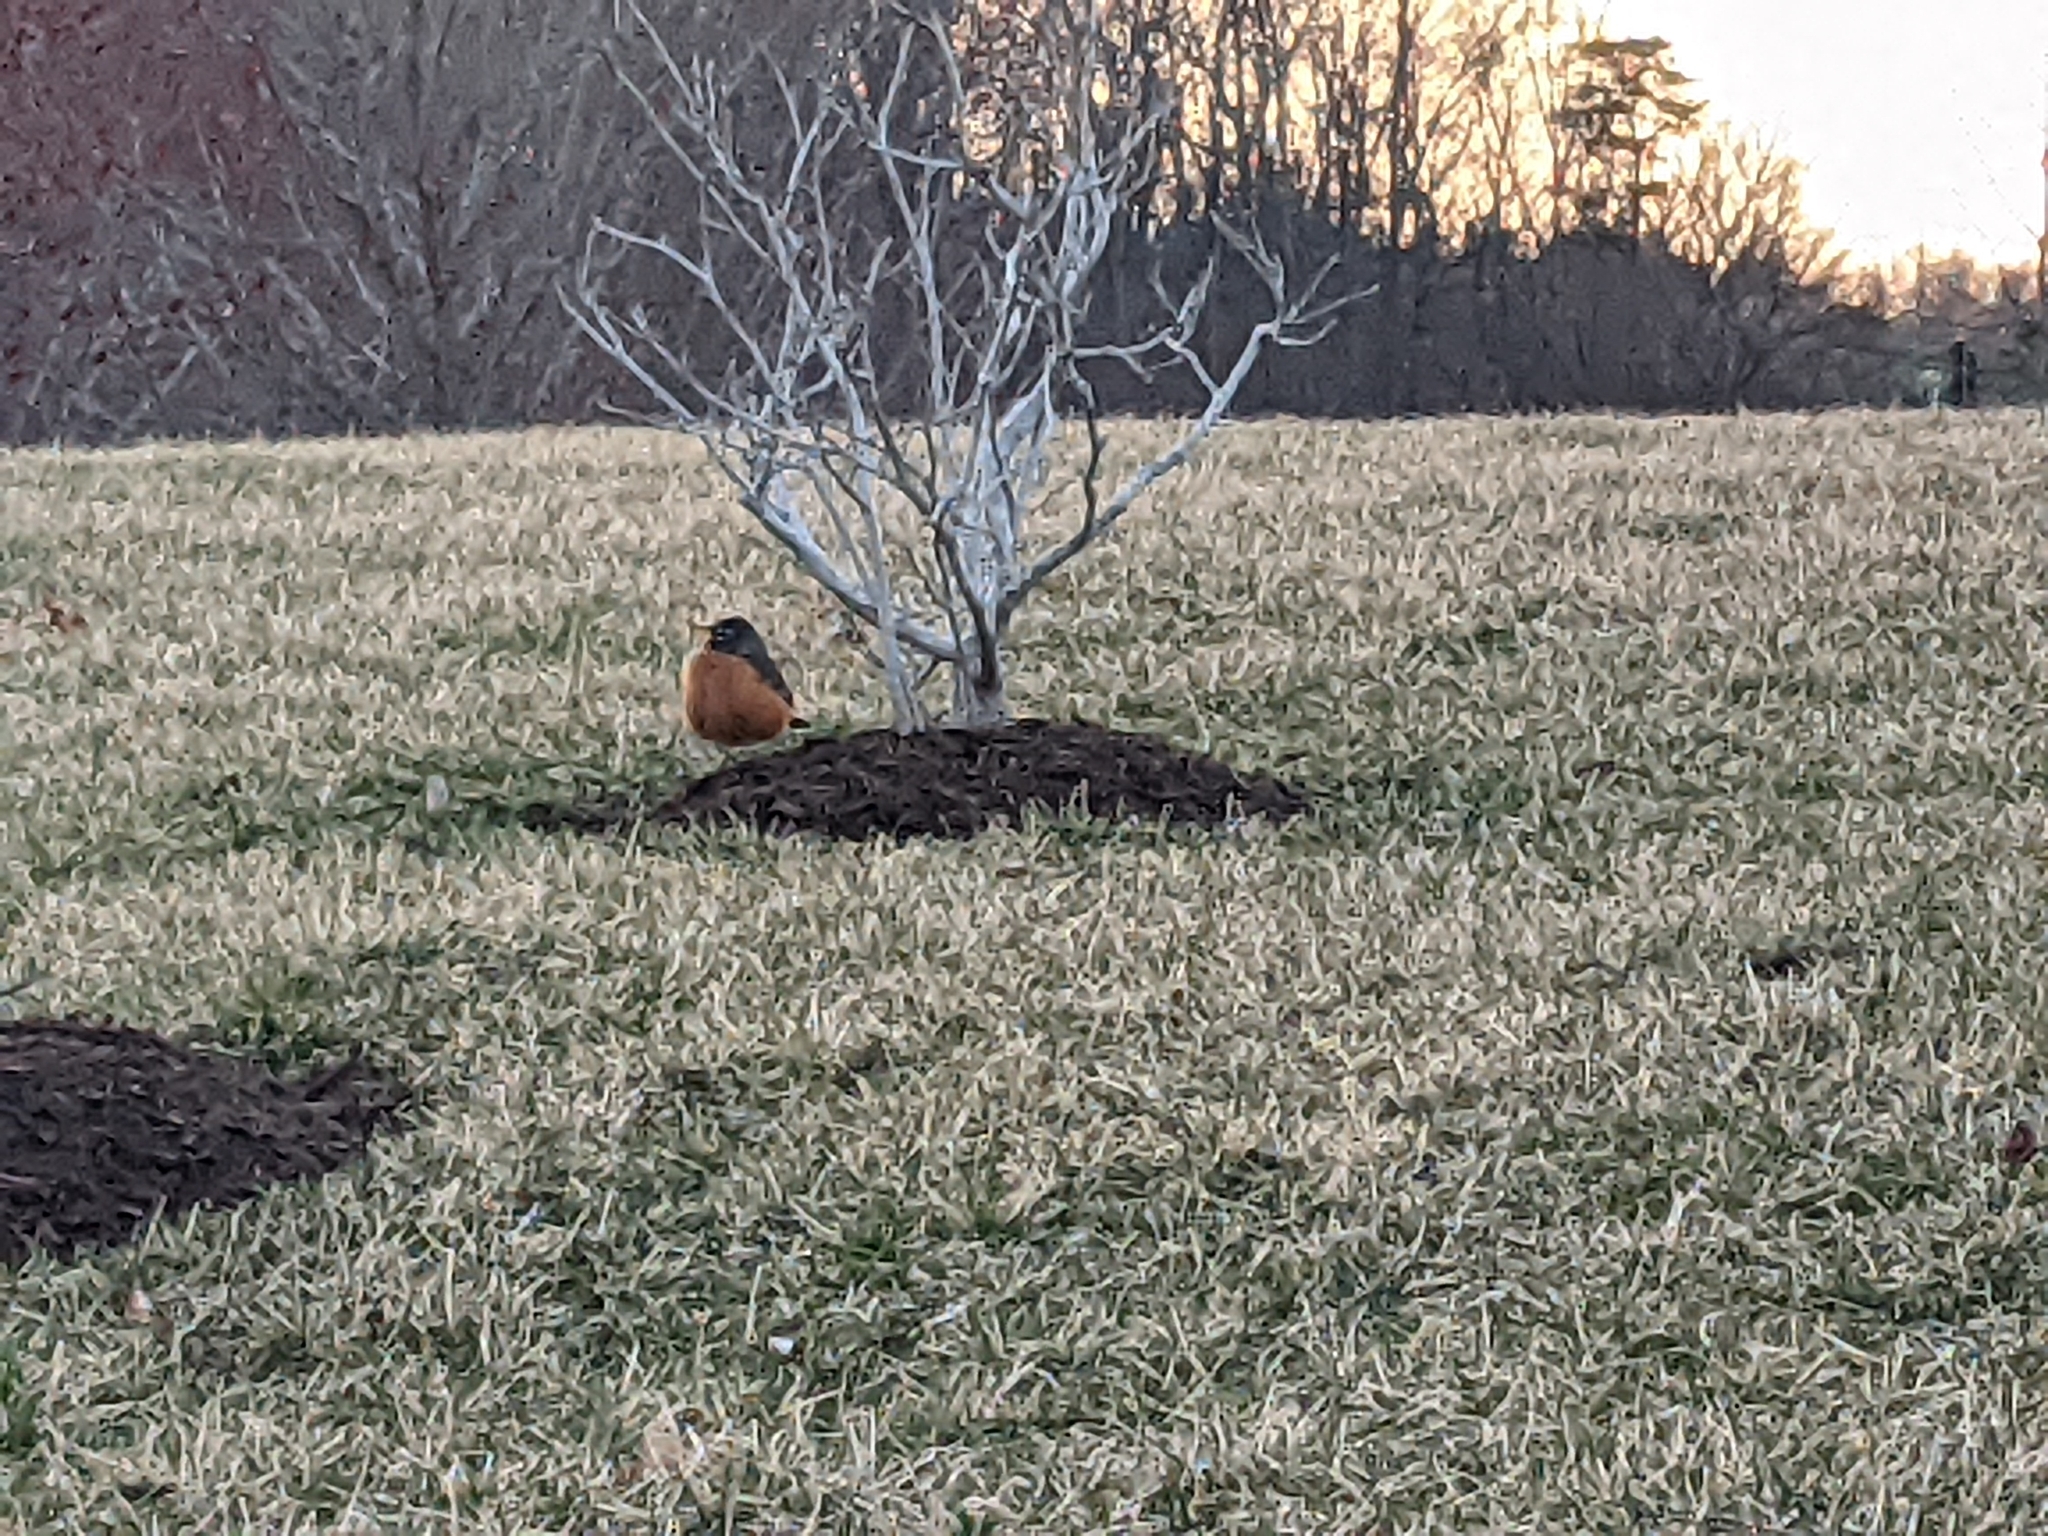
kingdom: Animalia
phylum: Chordata
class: Aves
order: Passeriformes
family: Turdidae
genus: Turdus
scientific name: Turdus migratorius
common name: American robin
